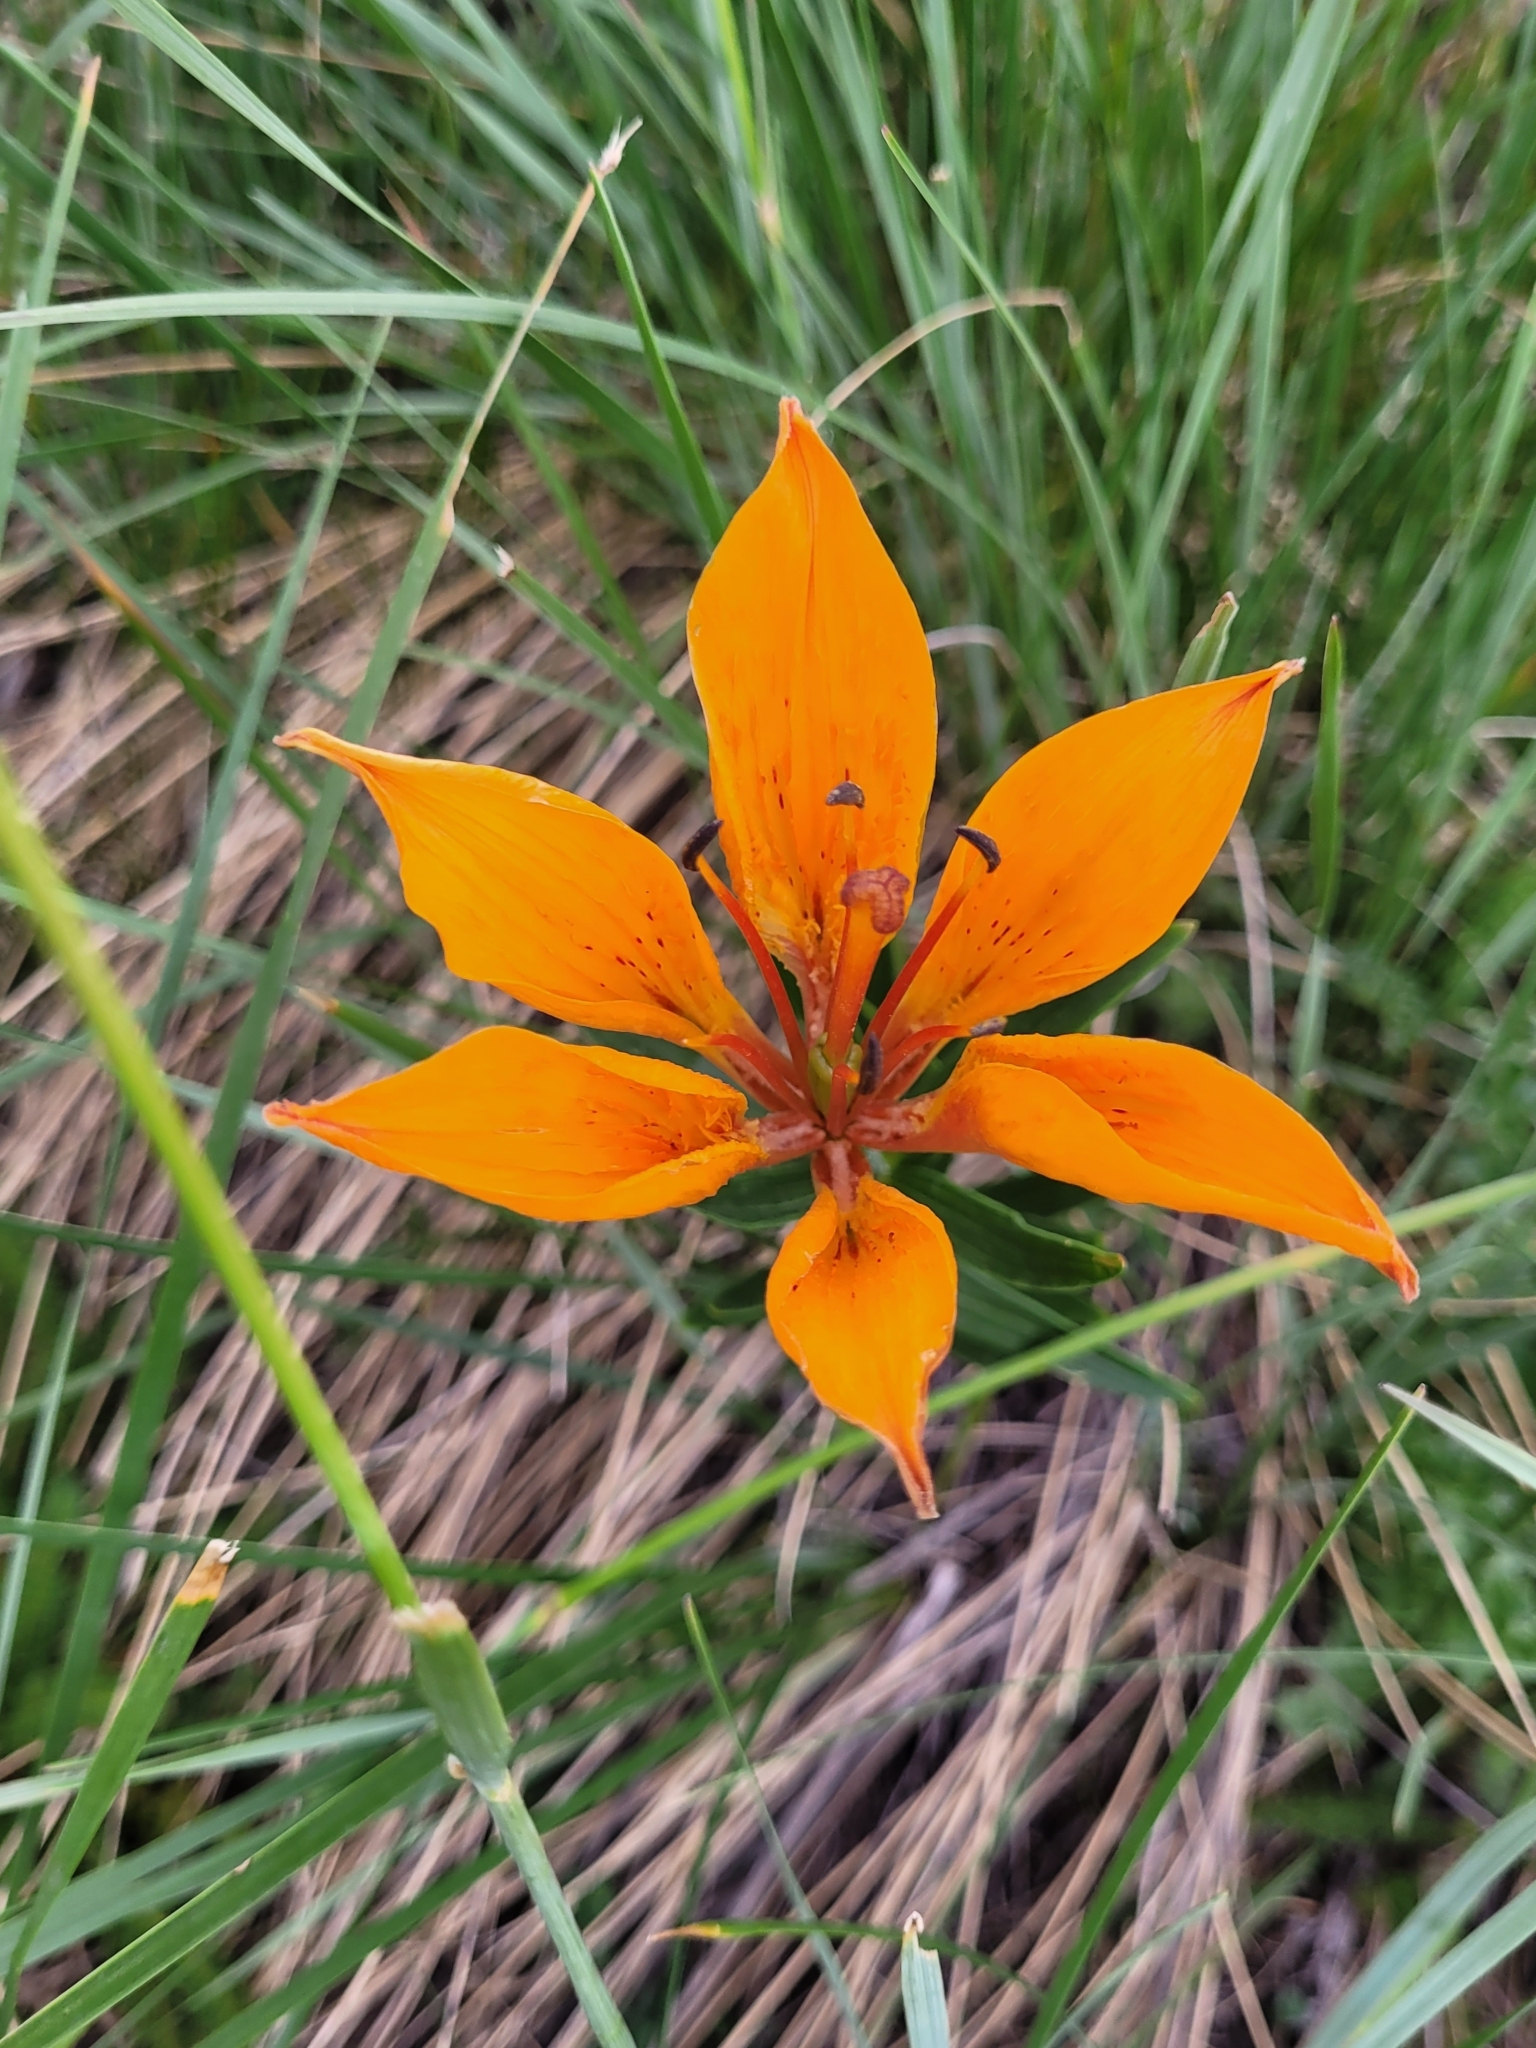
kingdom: Plantae
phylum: Tracheophyta
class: Liliopsida
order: Liliales
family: Liliaceae
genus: Lilium
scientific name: Lilium bulbiferum
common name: Orange lily
